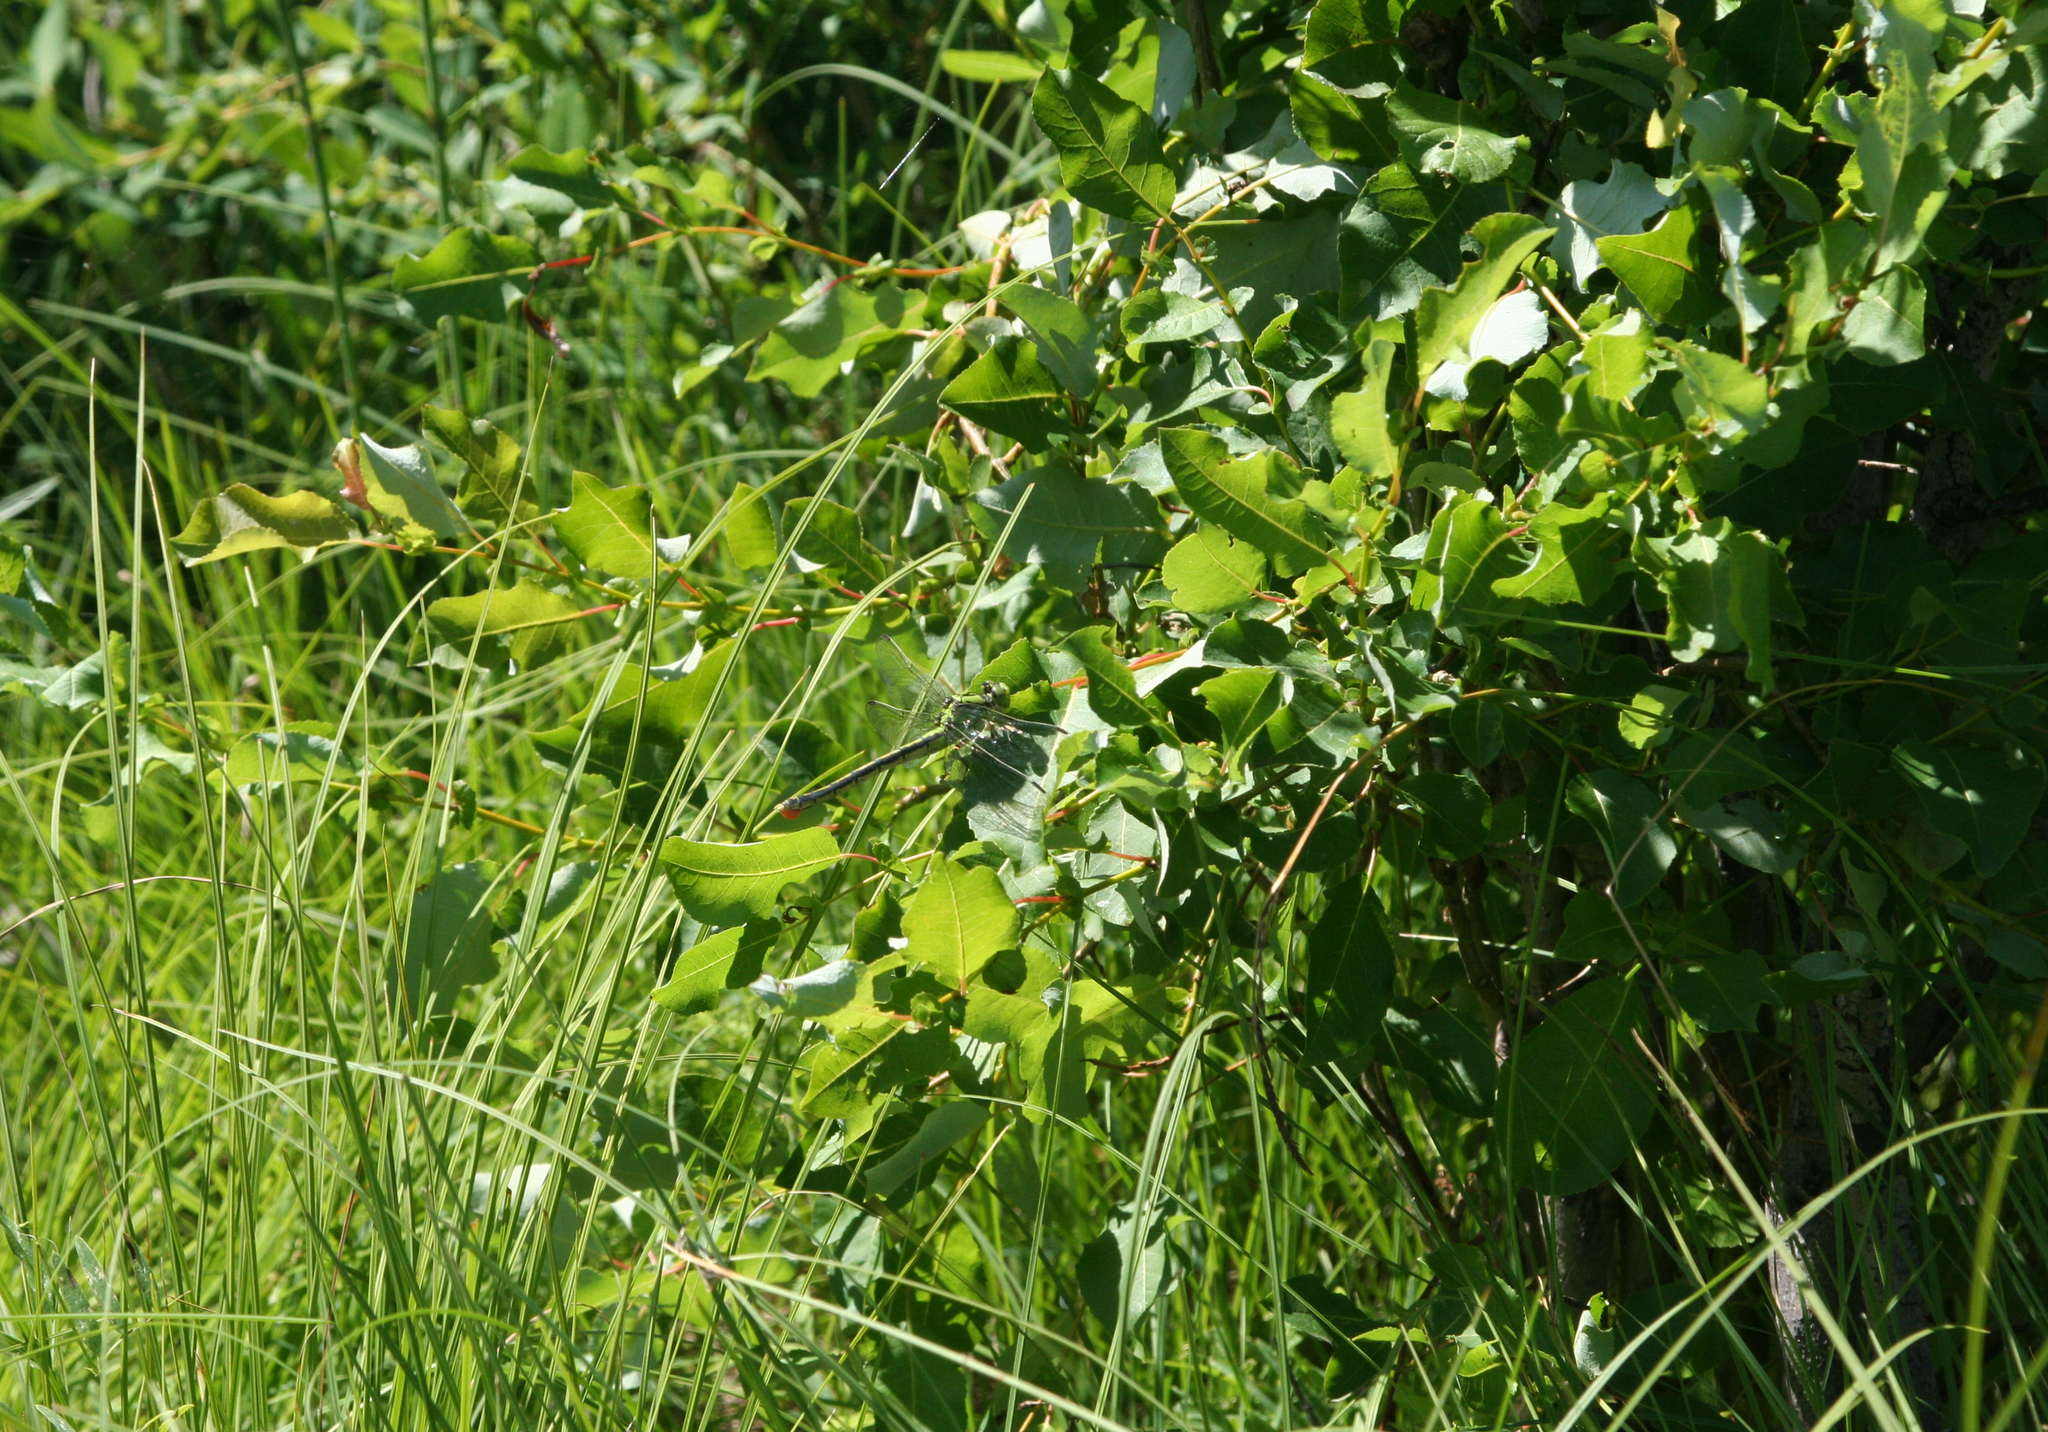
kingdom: Animalia
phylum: Arthropoda
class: Insecta
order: Odonata
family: Gomphidae
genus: Ophiogomphus
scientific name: Ophiogomphus spinicornis
